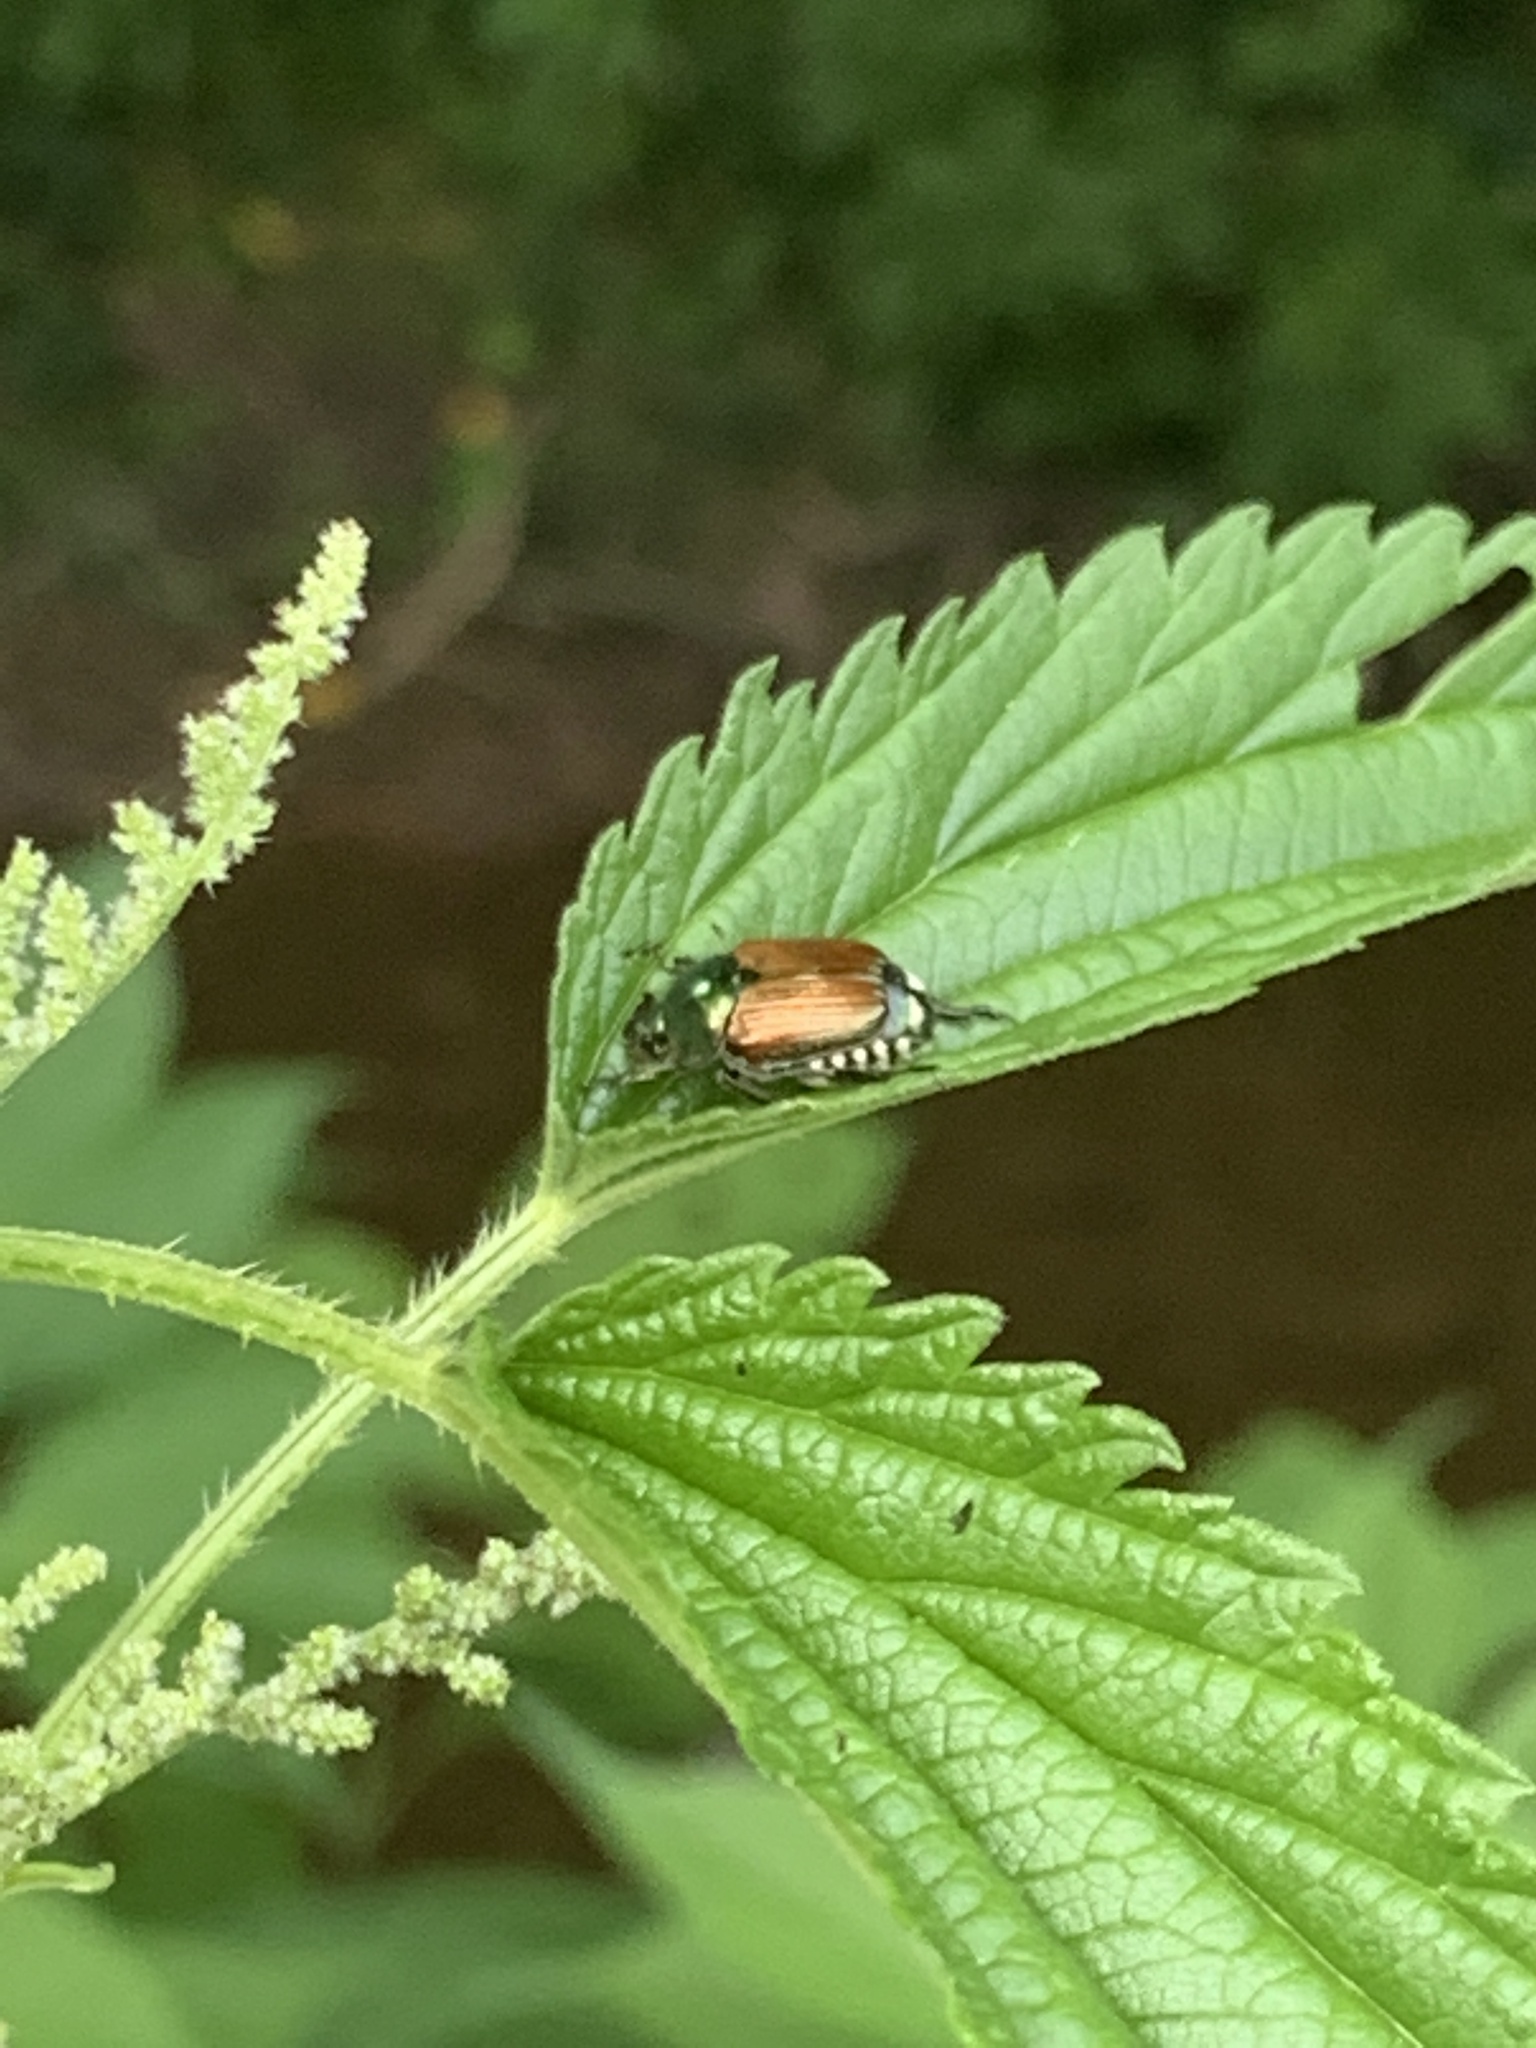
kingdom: Animalia
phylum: Arthropoda
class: Insecta
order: Coleoptera
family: Scarabaeidae
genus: Popillia
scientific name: Popillia japonica
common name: Japanese beetle
